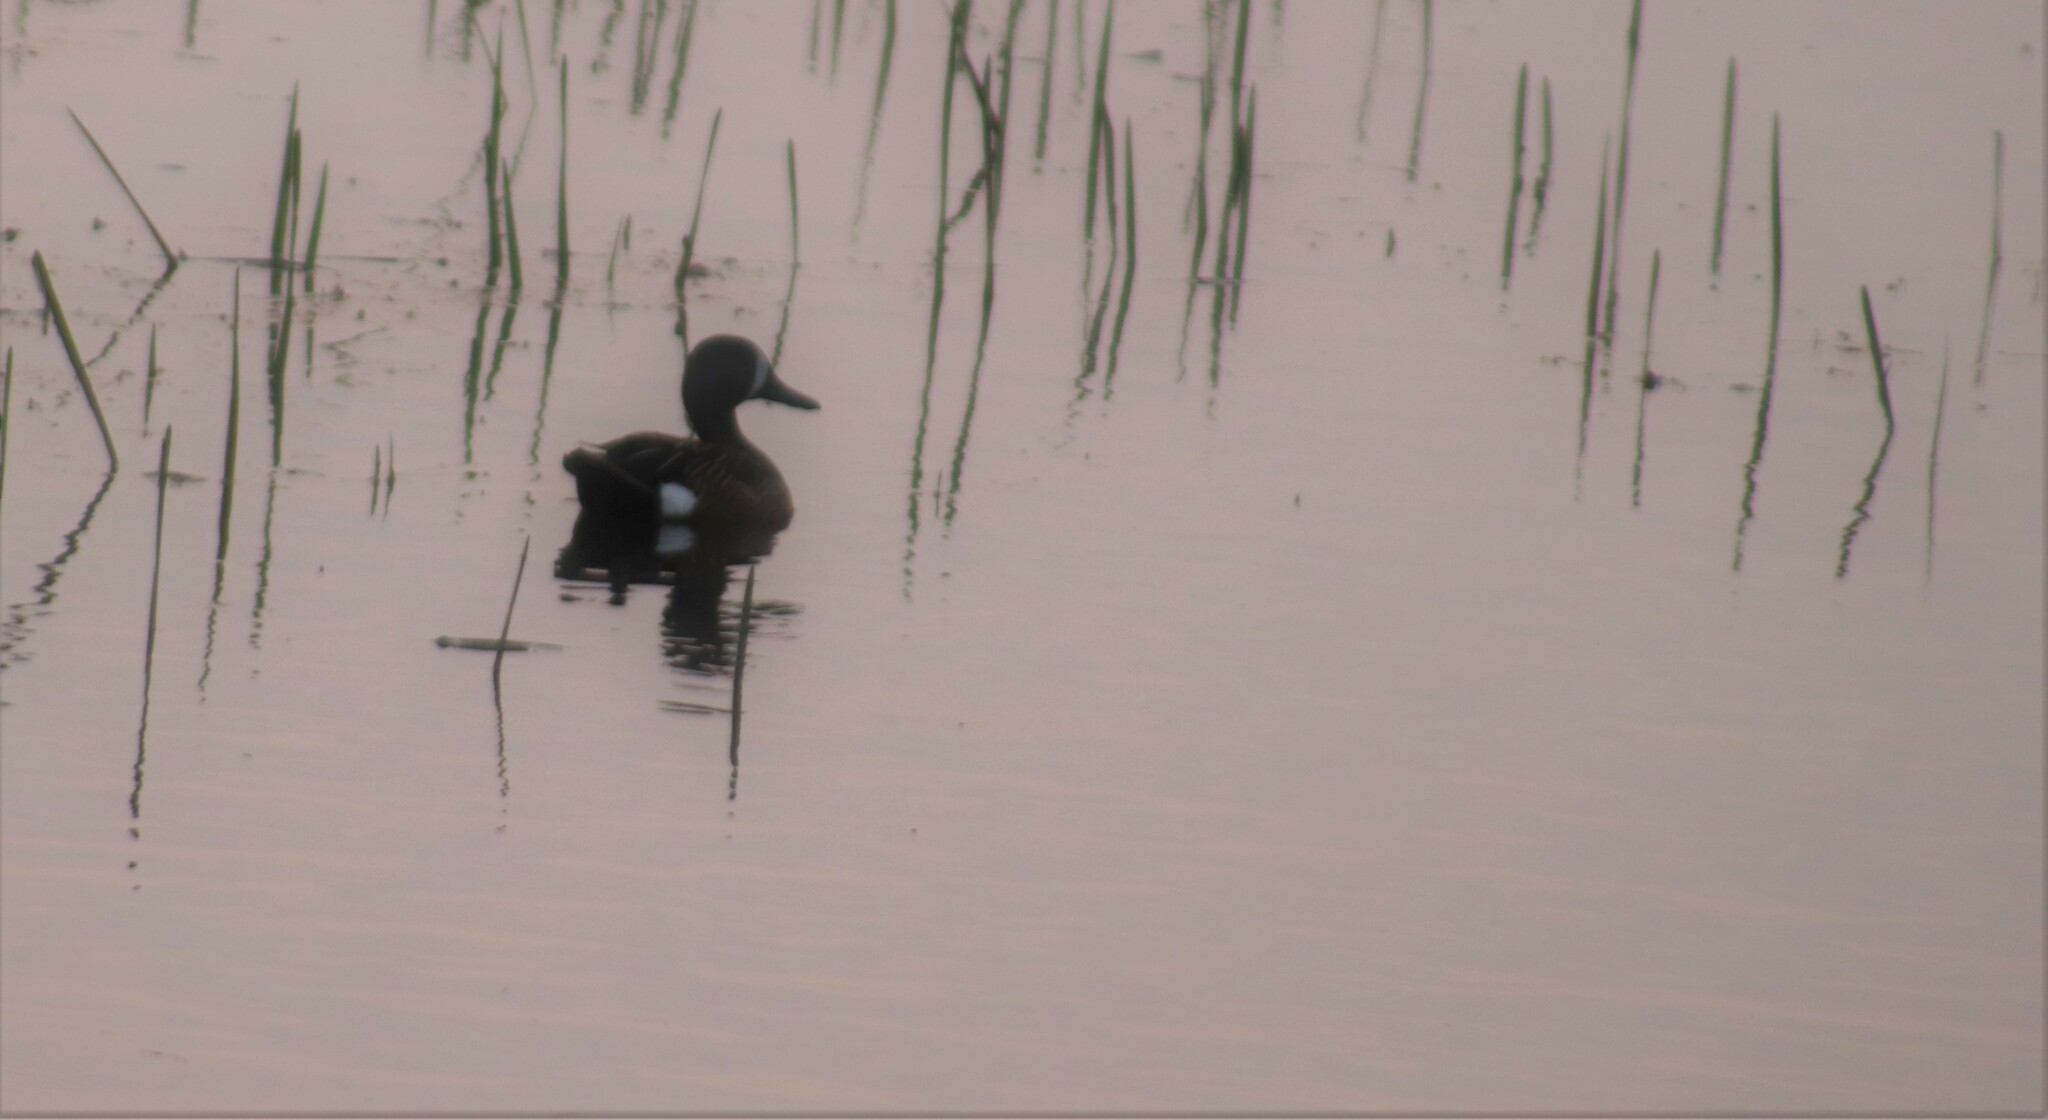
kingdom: Animalia
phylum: Chordata
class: Aves
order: Anseriformes
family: Anatidae
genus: Spatula
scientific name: Spatula discors
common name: Blue-winged teal
